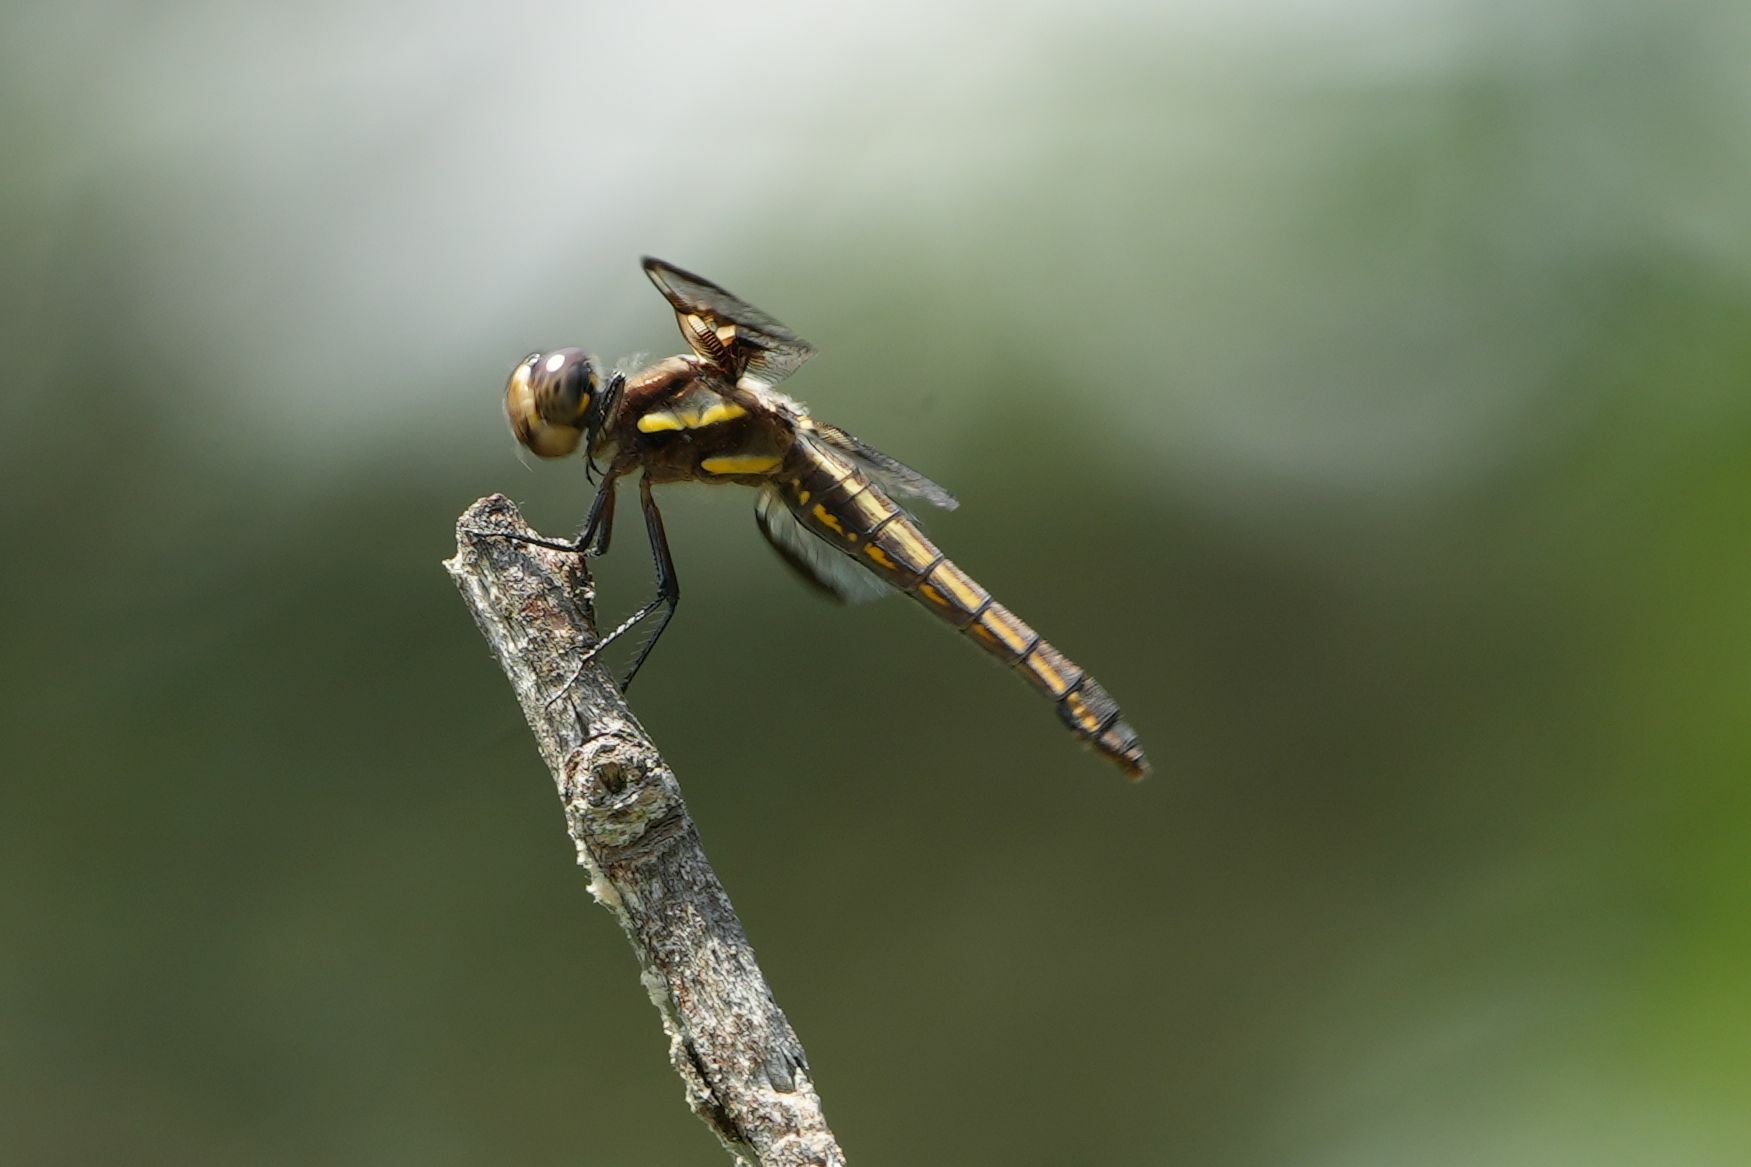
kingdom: Animalia
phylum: Arthropoda
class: Insecta
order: Odonata
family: Libellulidae
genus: Libellula
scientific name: Libellula pulchella
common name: Twelve-spotted skimmer
